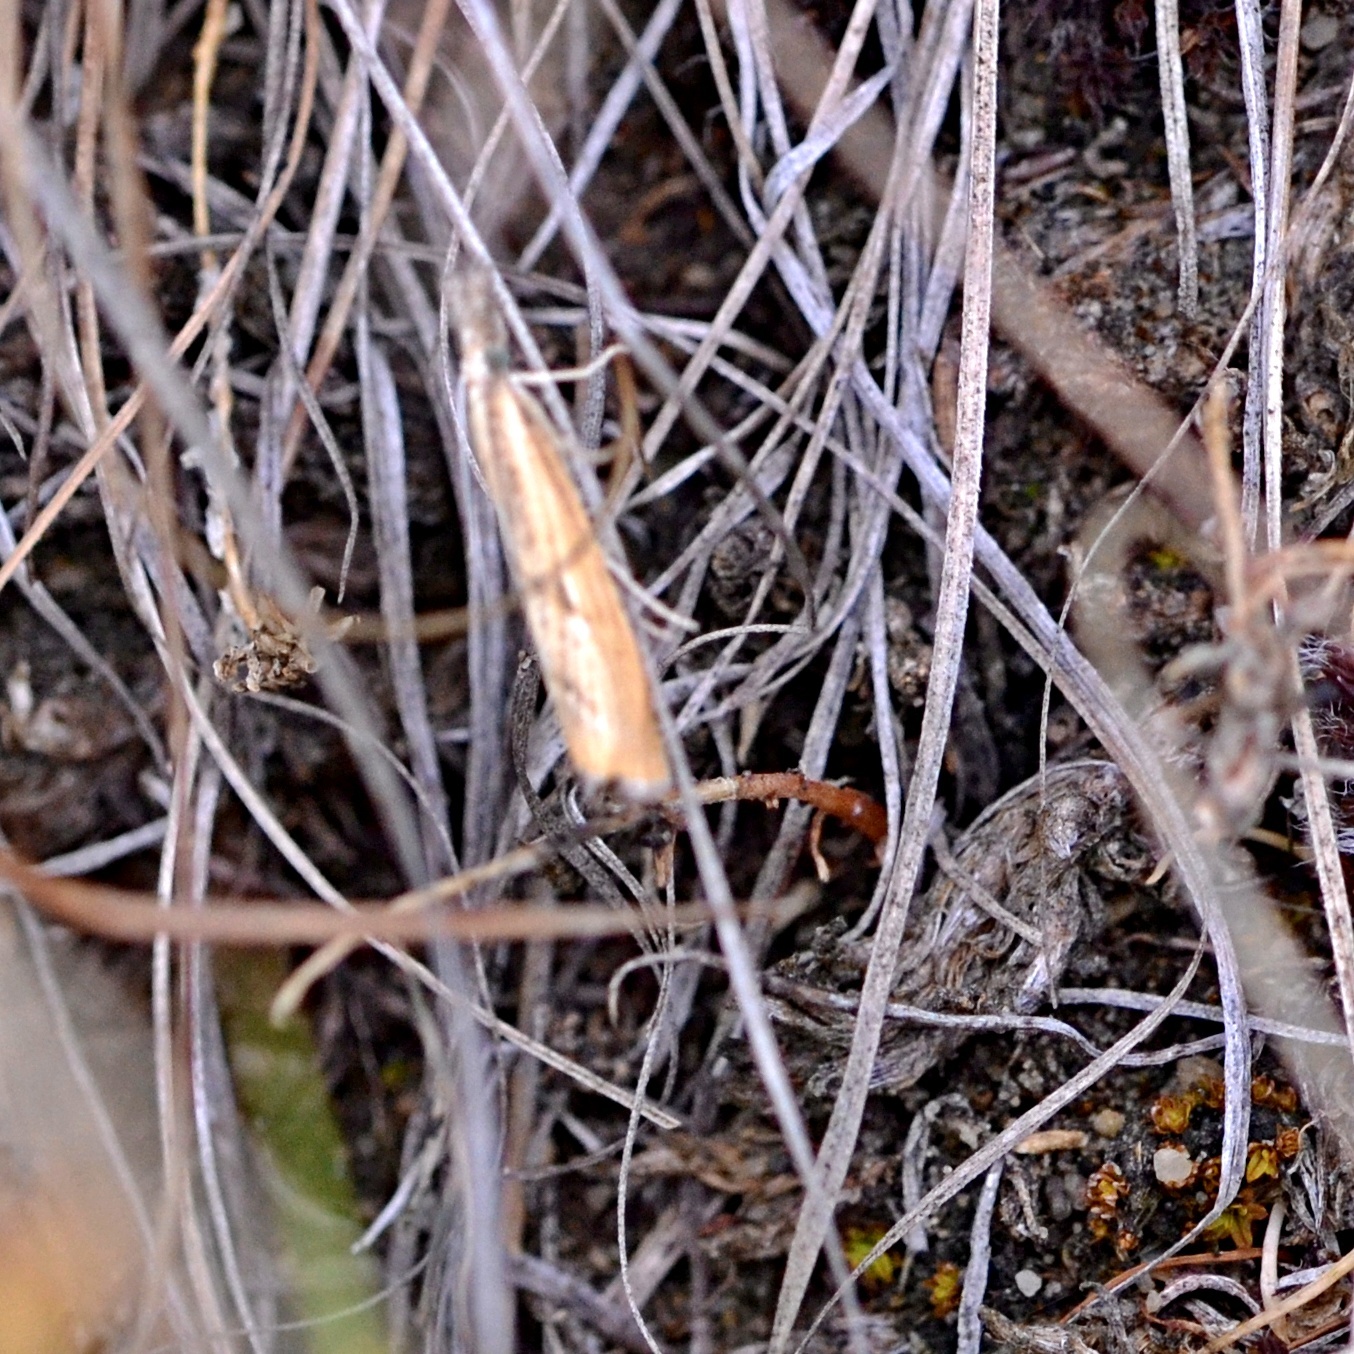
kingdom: Animalia
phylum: Arthropoda
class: Insecta
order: Lepidoptera
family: Crambidae
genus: Agriphila
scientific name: Agriphila inquinatella
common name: Barred grass-veneer
